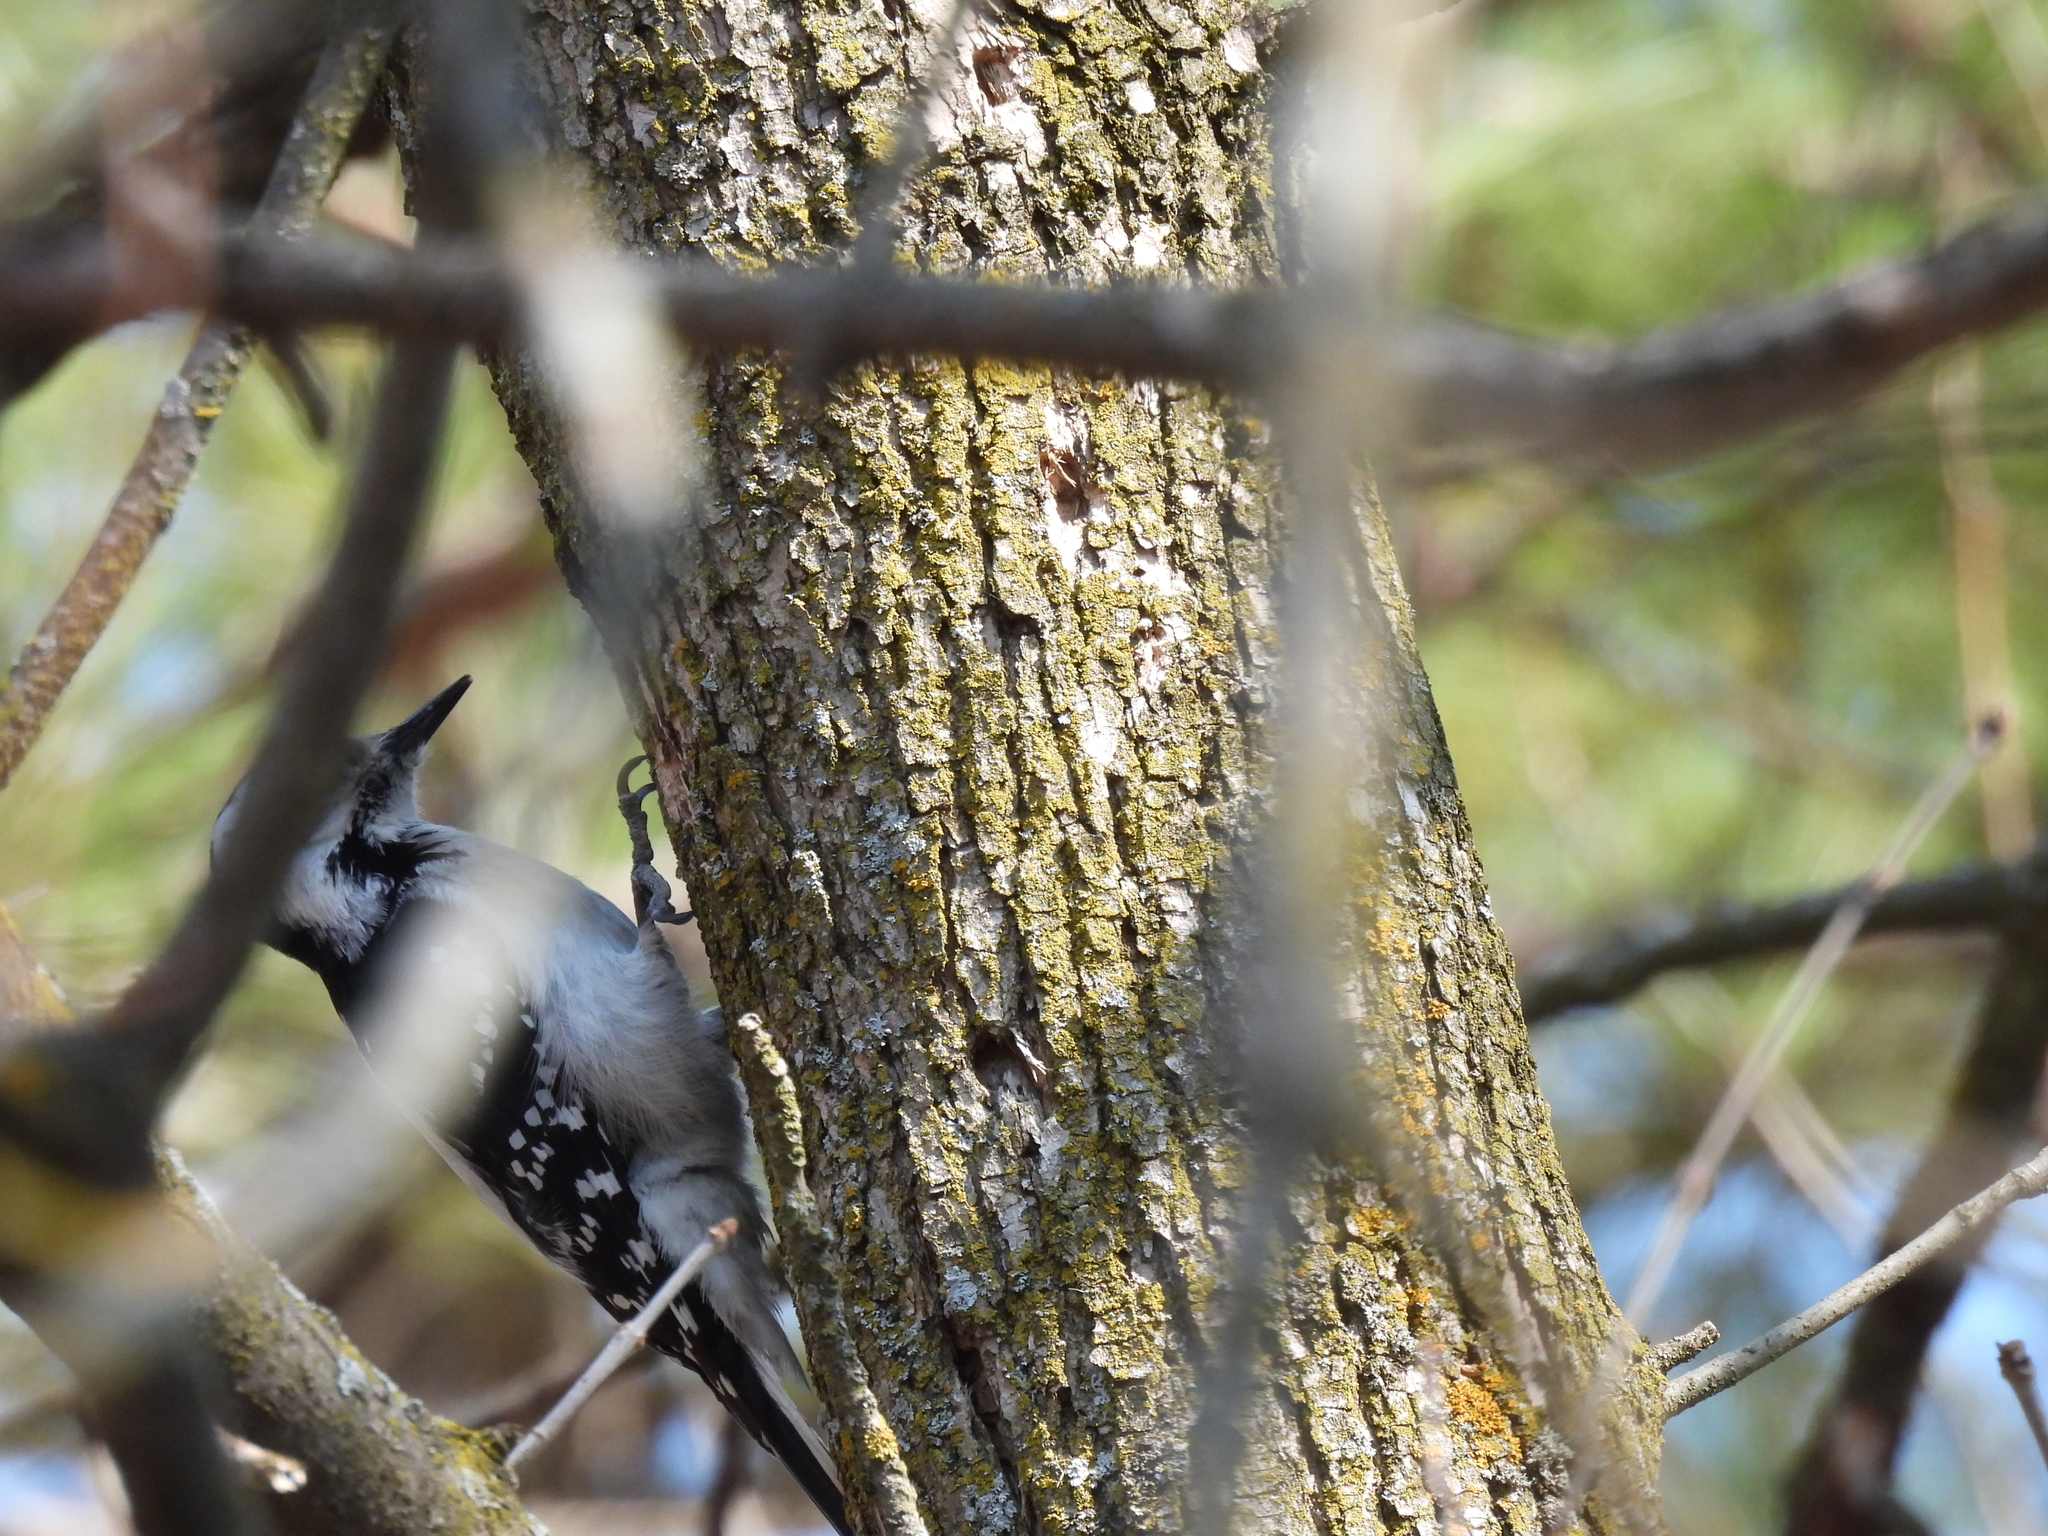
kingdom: Animalia
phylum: Chordata
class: Aves
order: Piciformes
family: Picidae
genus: Leuconotopicus
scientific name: Leuconotopicus villosus
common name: Hairy woodpecker
